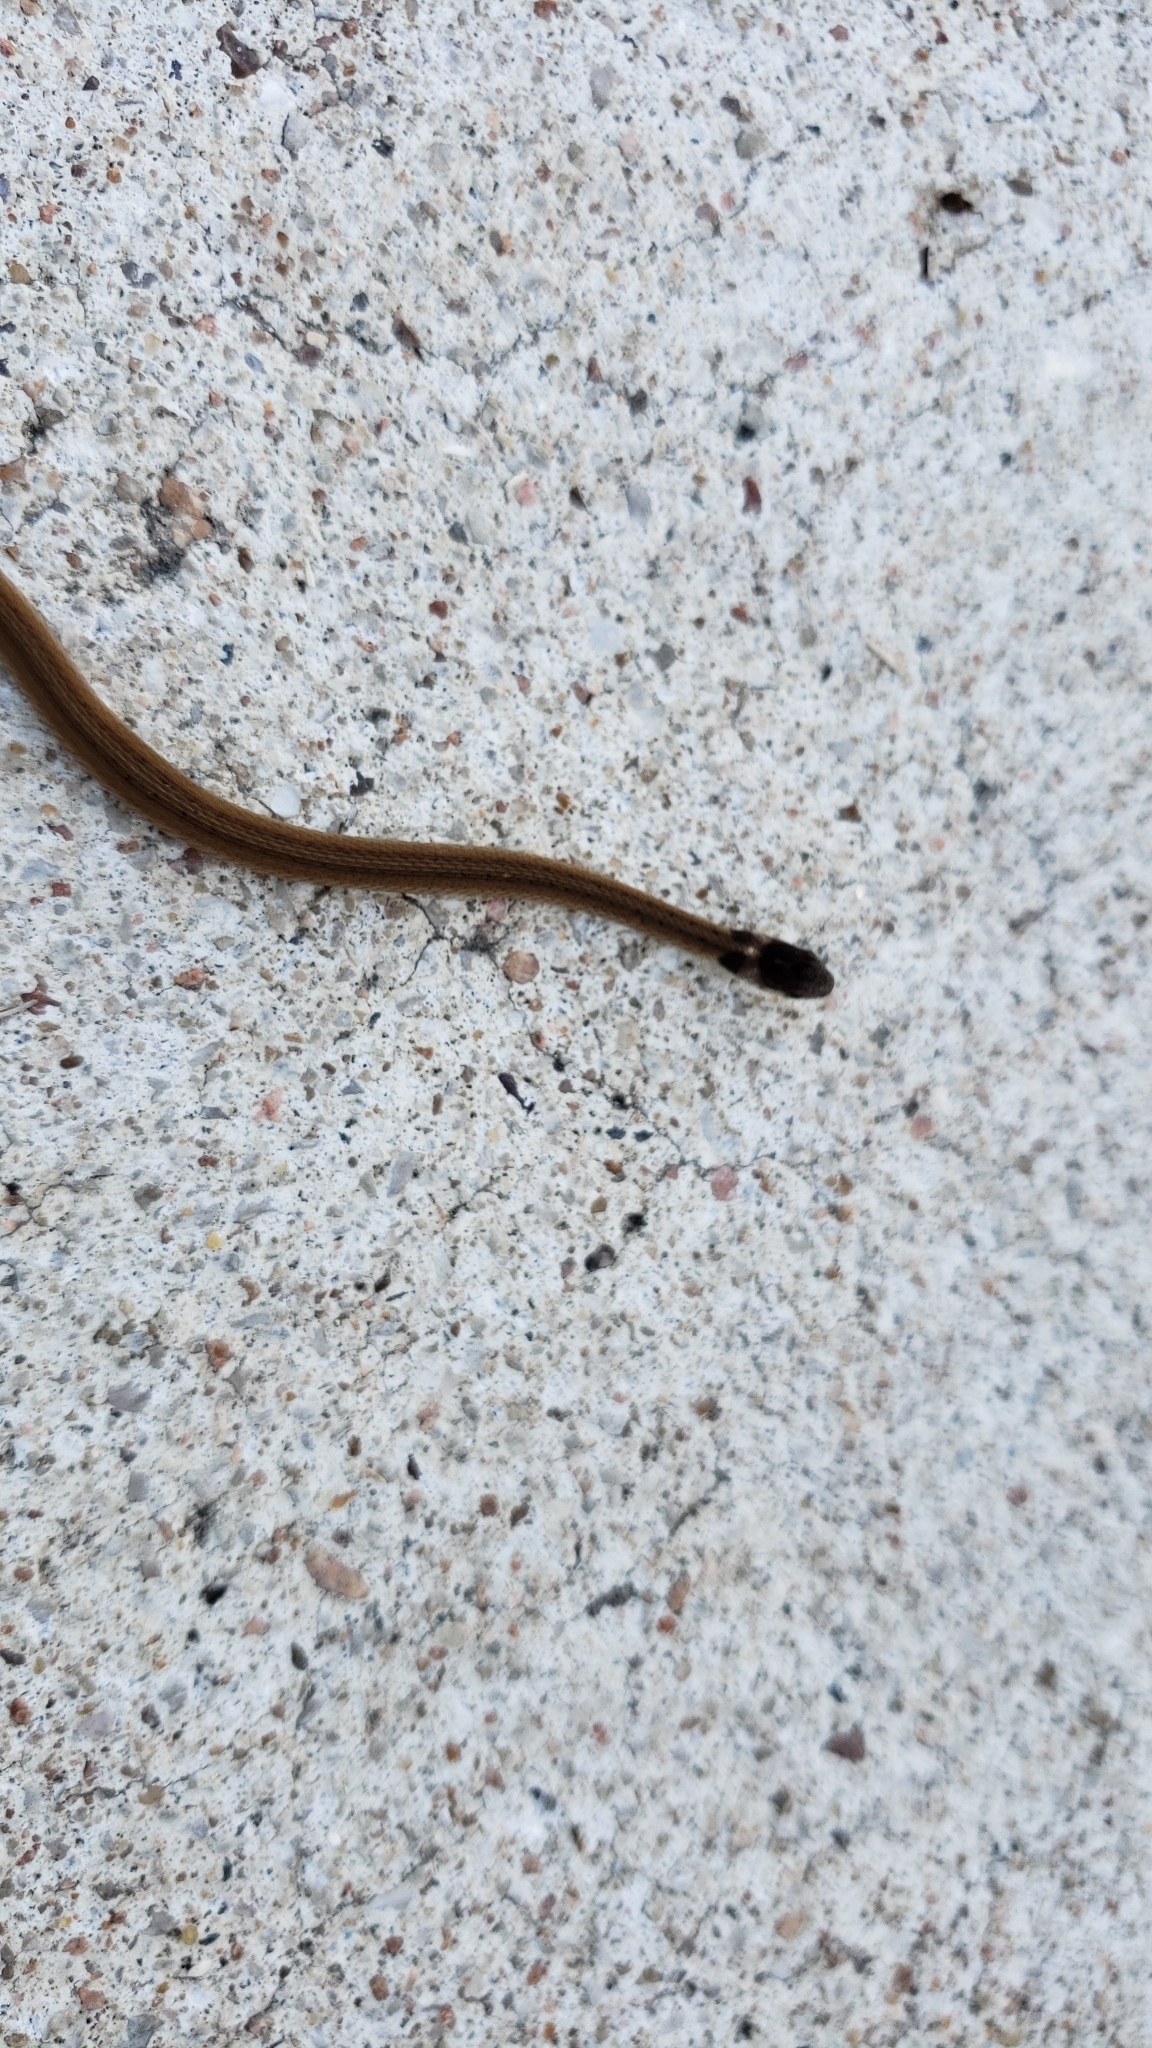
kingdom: Animalia
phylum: Chordata
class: Squamata
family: Colubridae
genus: Storeria
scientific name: Storeria dekayi
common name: (dekay’s) brown snake
